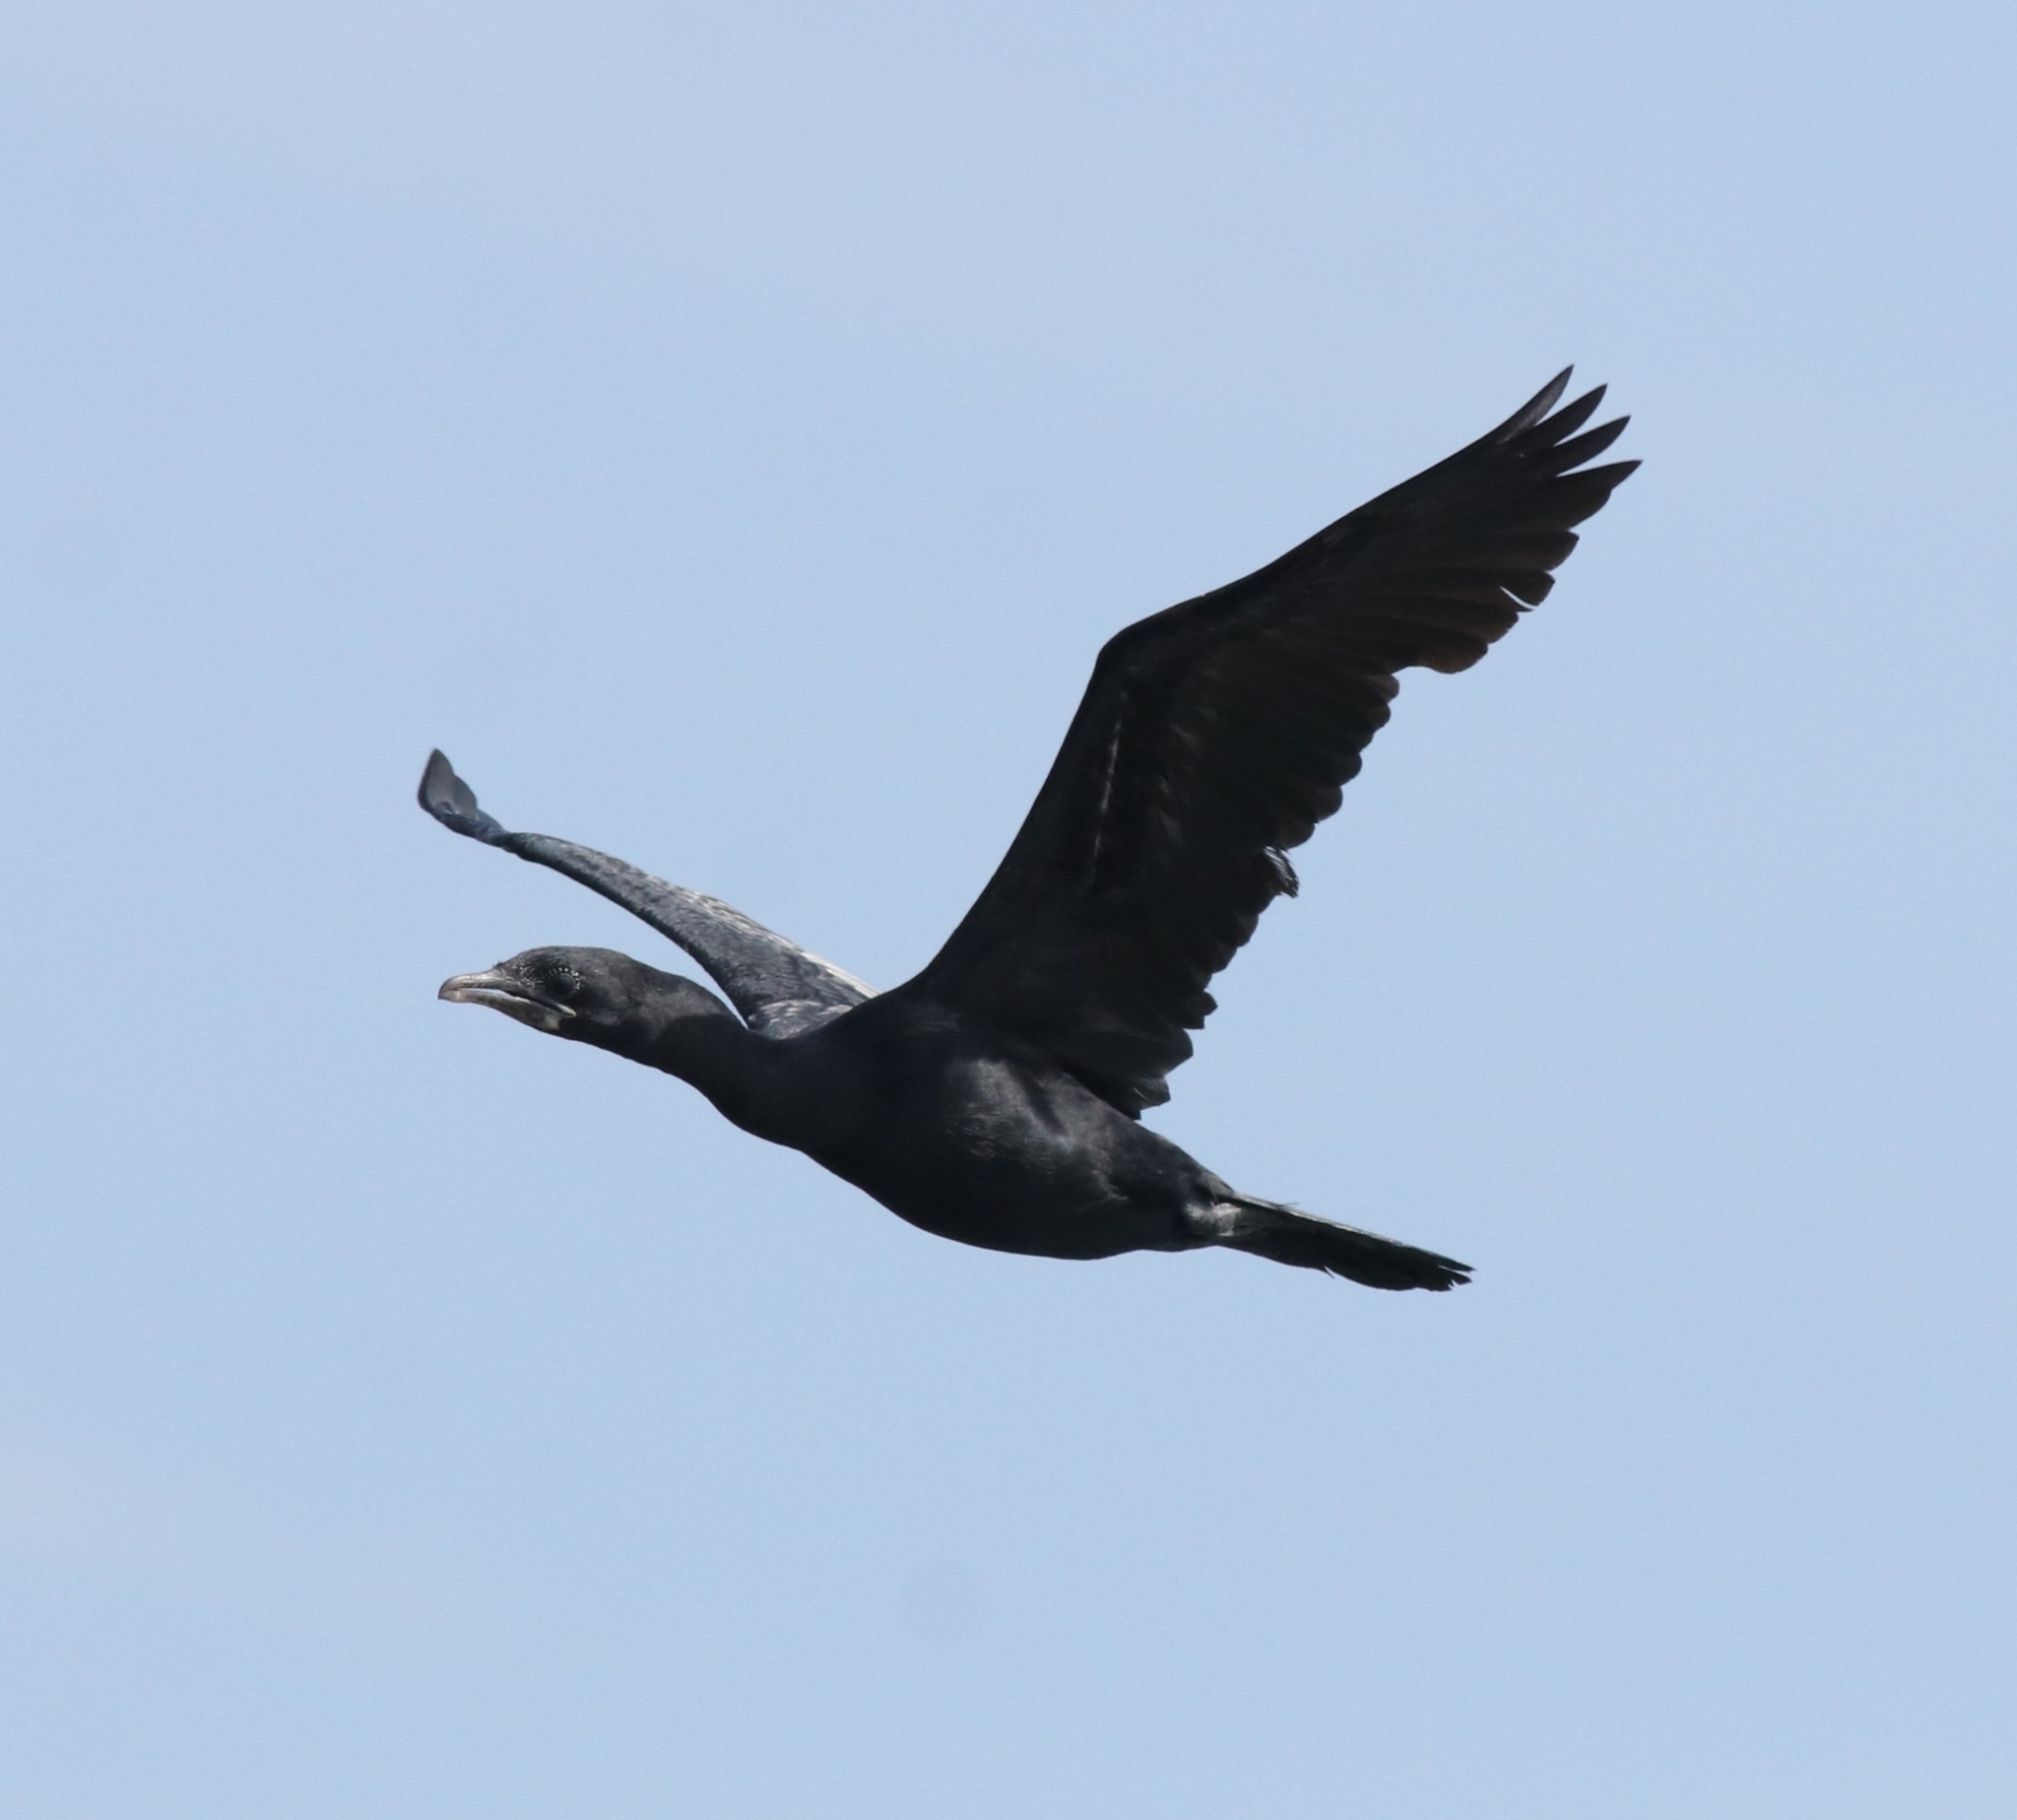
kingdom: Animalia
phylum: Chordata
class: Aves
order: Suliformes
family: Phalacrocoracidae
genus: Microcarbo
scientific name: Microcarbo niger
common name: Little cormorant
